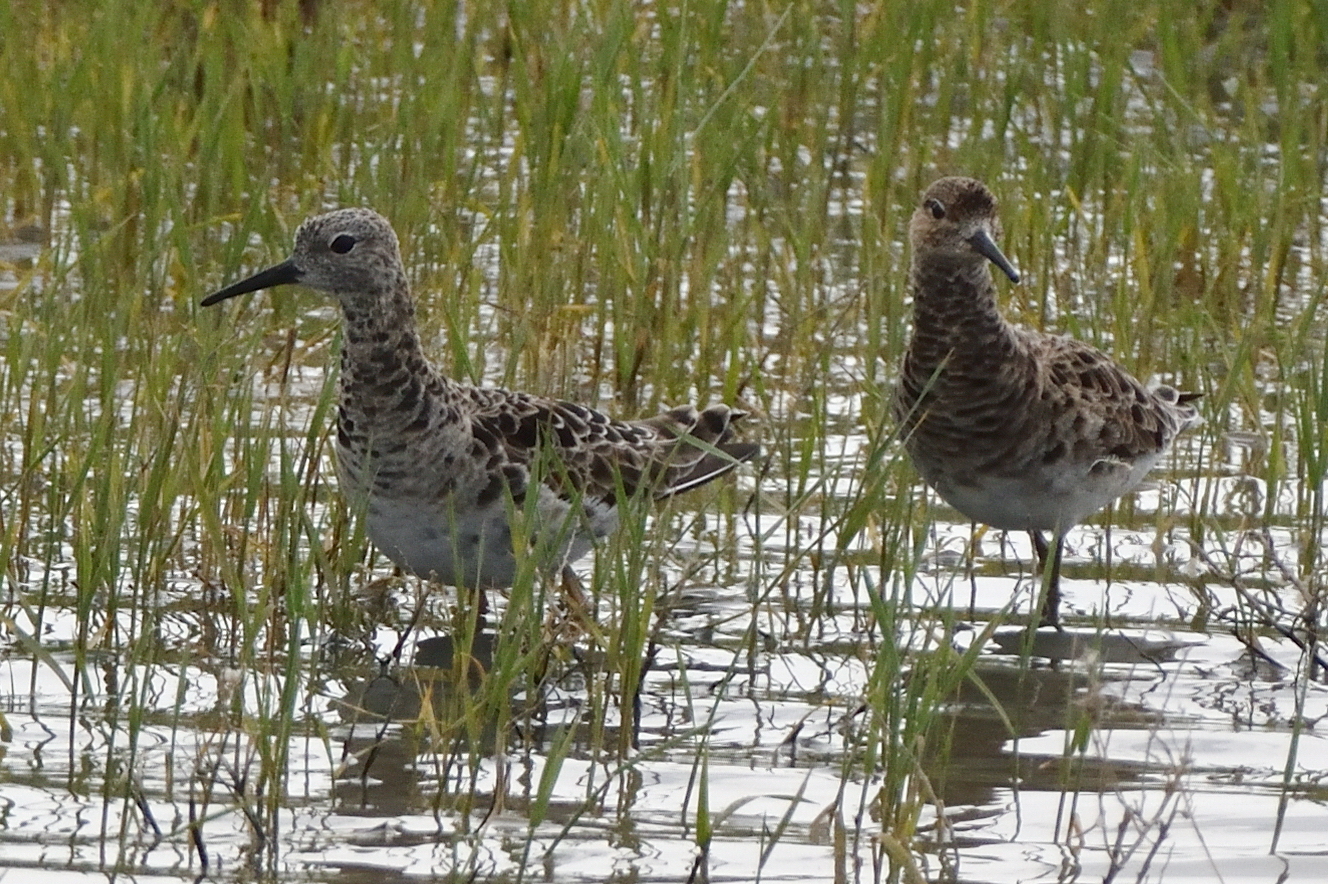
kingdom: Animalia
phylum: Chordata
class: Aves
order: Charadriiformes
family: Scolopacidae
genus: Calidris
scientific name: Calidris pugnax
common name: Ruff
